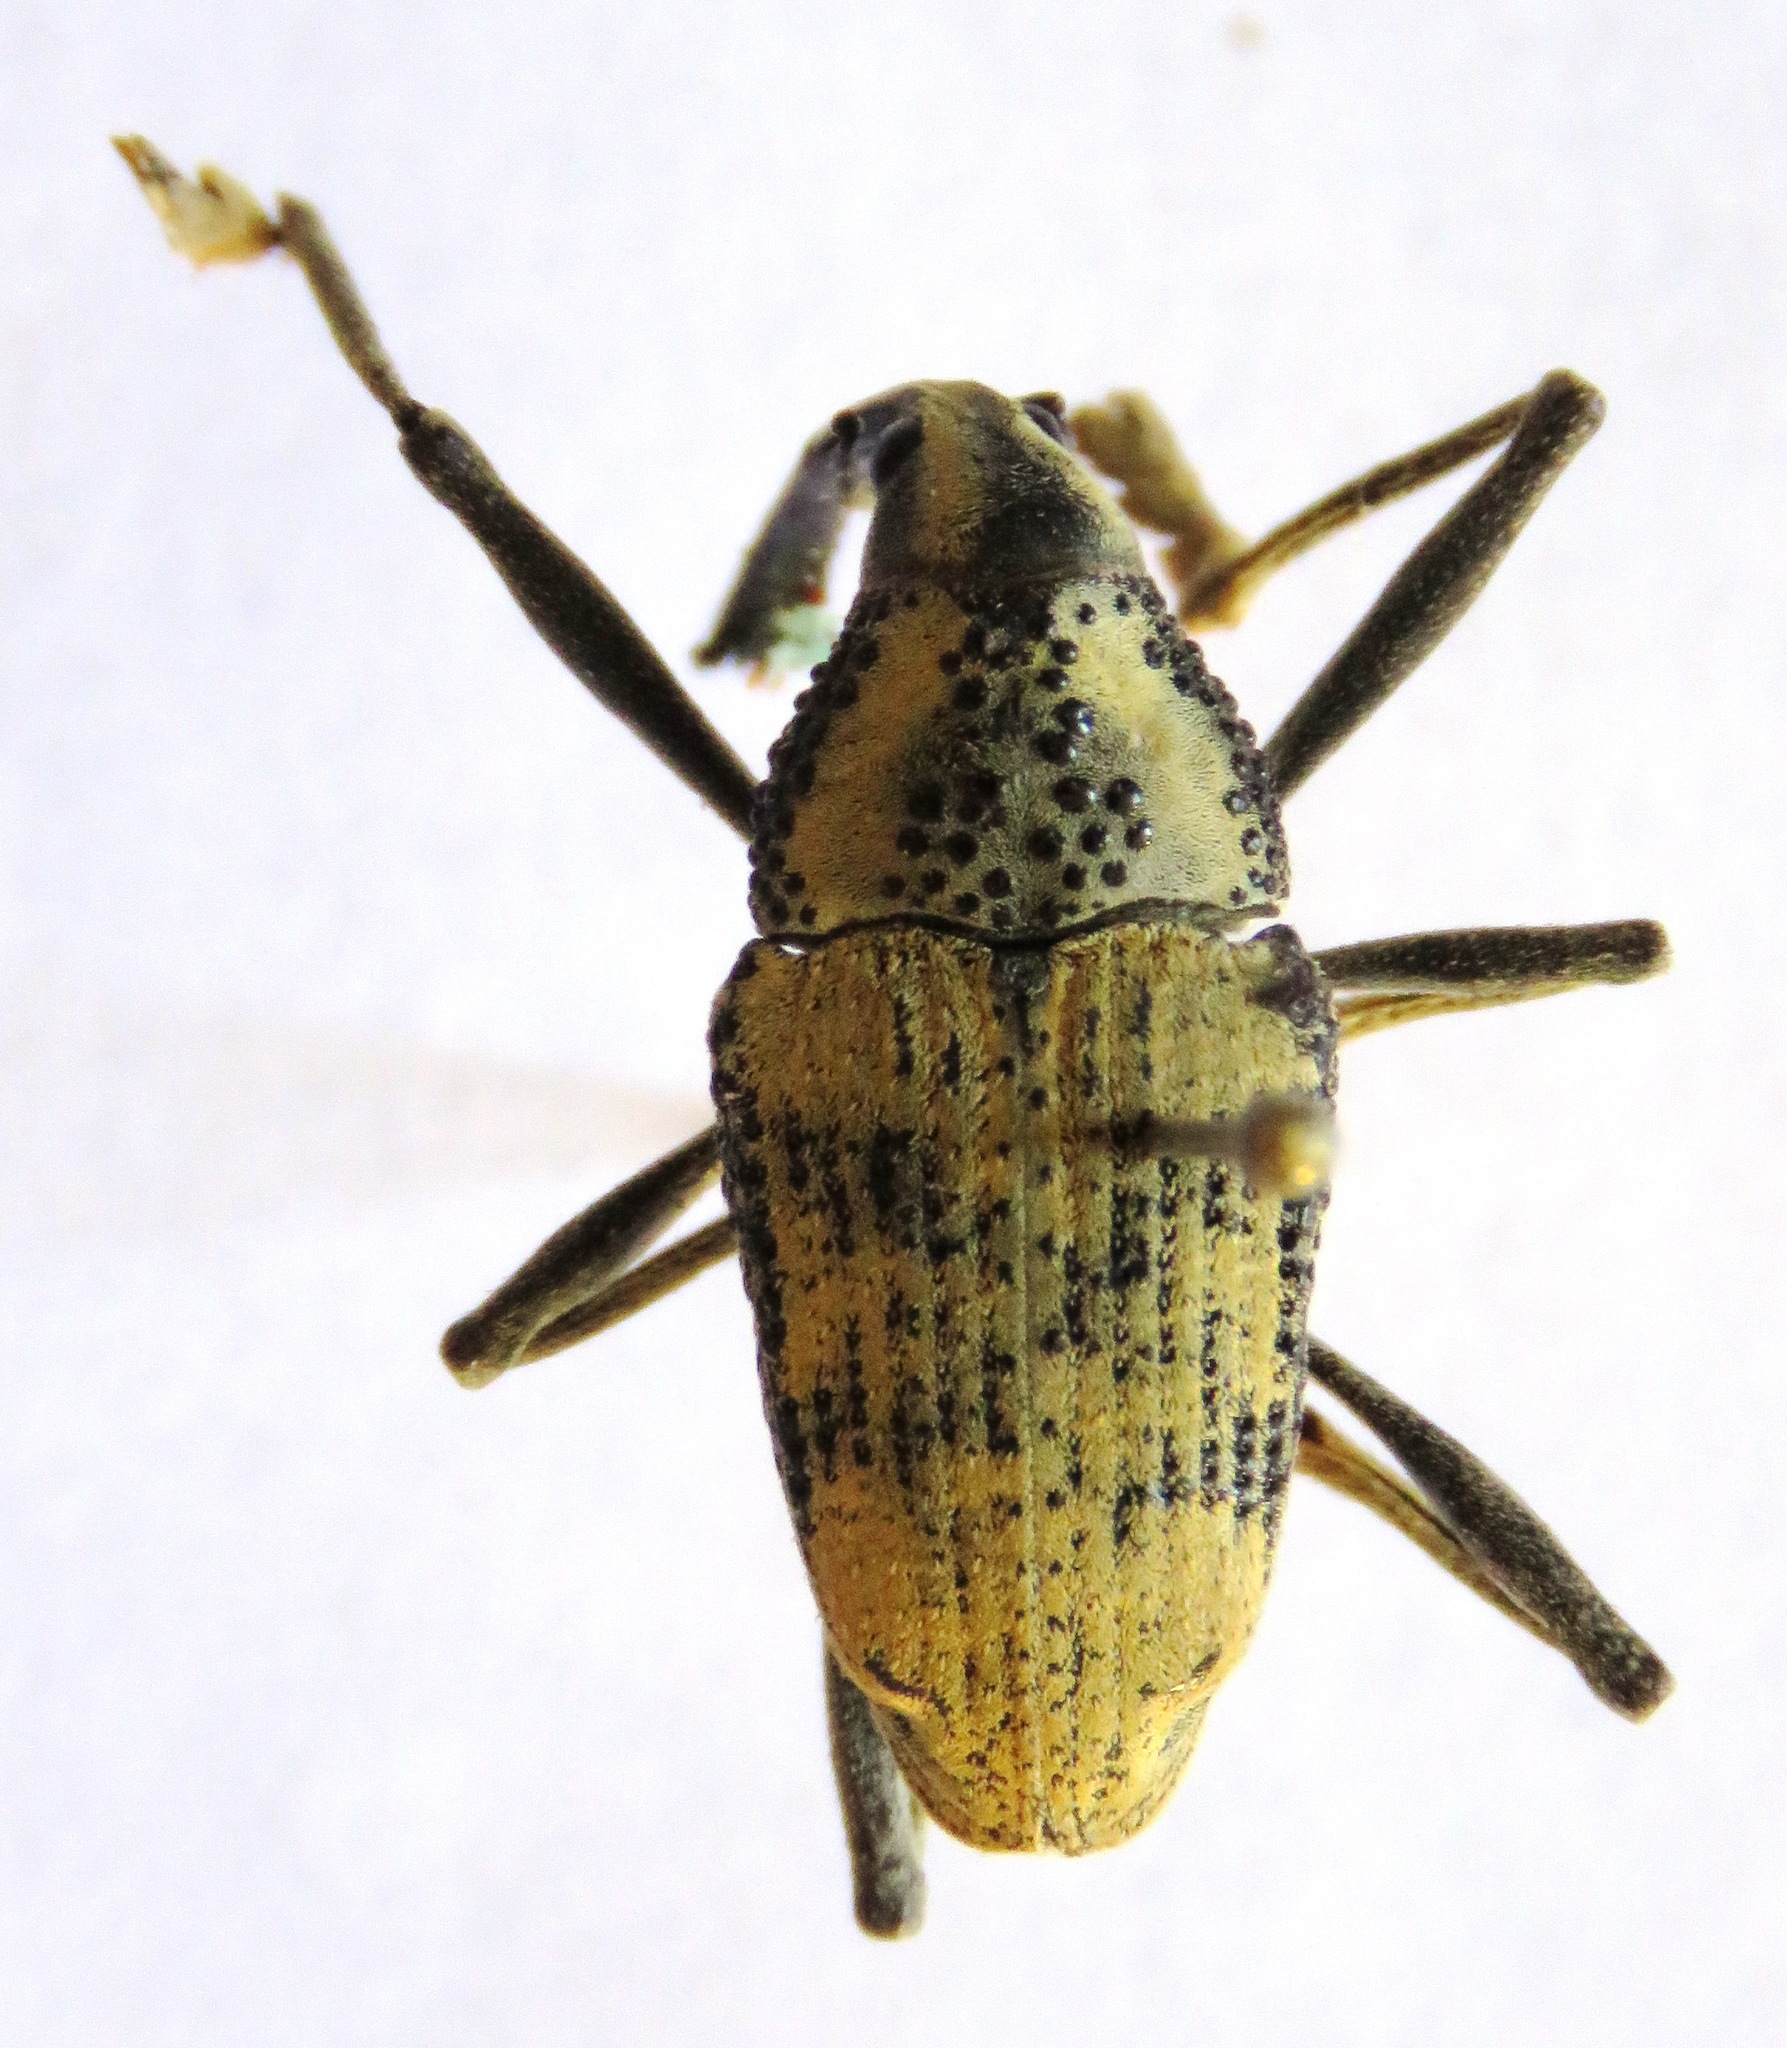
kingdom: Animalia
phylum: Arthropoda
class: Insecta
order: Coleoptera
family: Curculionidae
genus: Rhinastus
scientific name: Rhinastus latisternus
